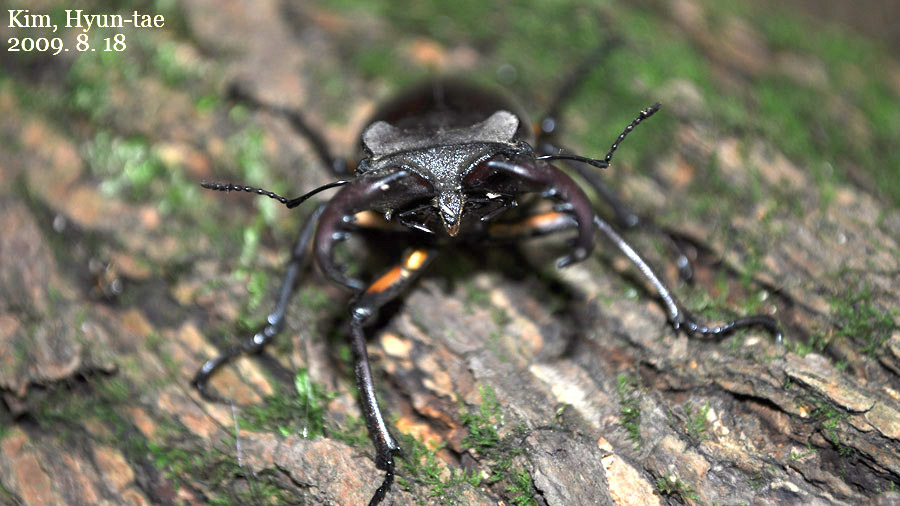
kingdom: Animalia
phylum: Arthropoda
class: Insecta
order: Coleoptera
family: Lucanidae
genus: Lucanus
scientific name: Lucanus maculifemoratus
